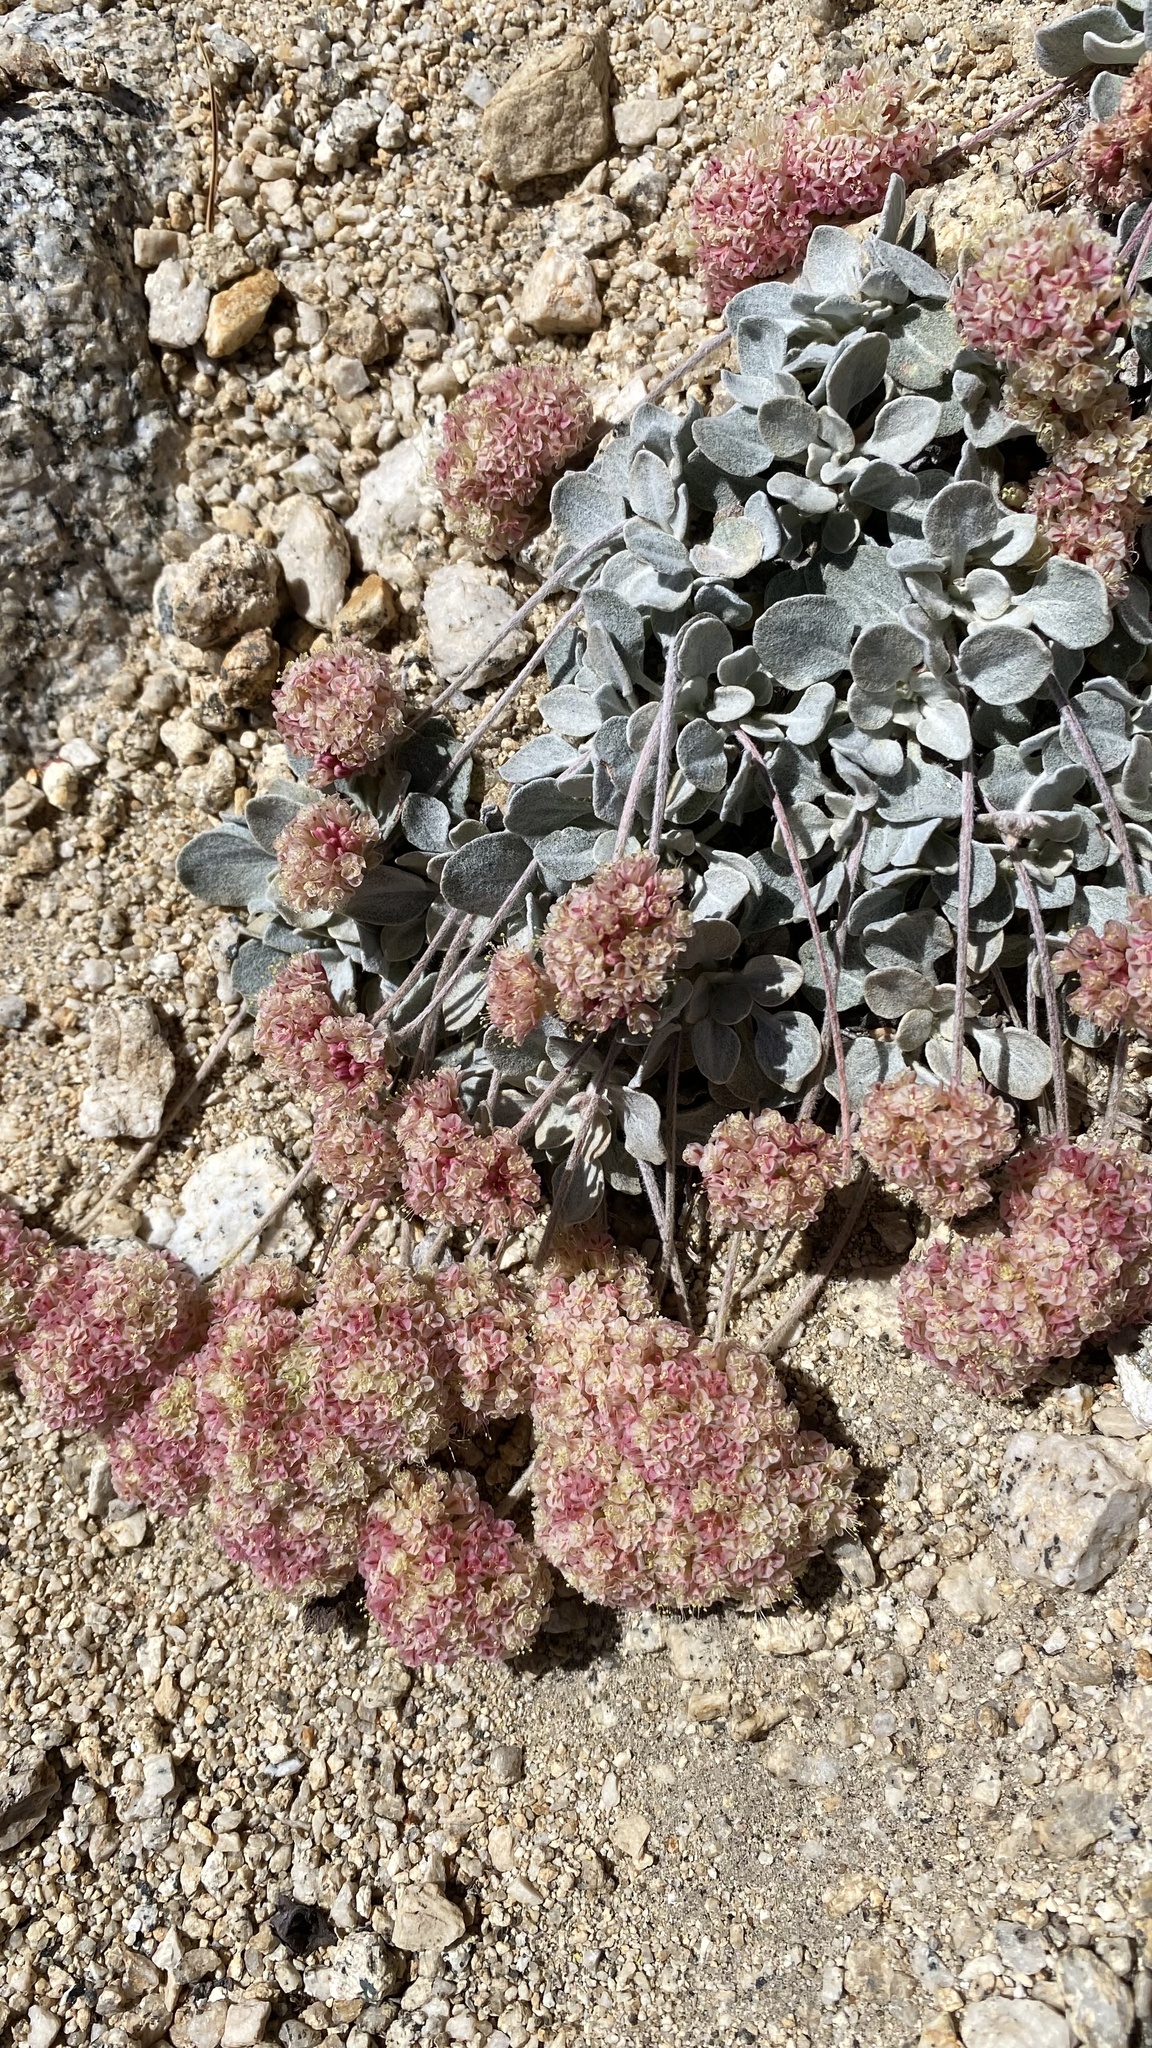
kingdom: Plantae
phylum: Tracheophyta
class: Magnoliopsida
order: Caryophyllales
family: Polygonaceae
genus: Eriogonum
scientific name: Eriogonum lobbii
